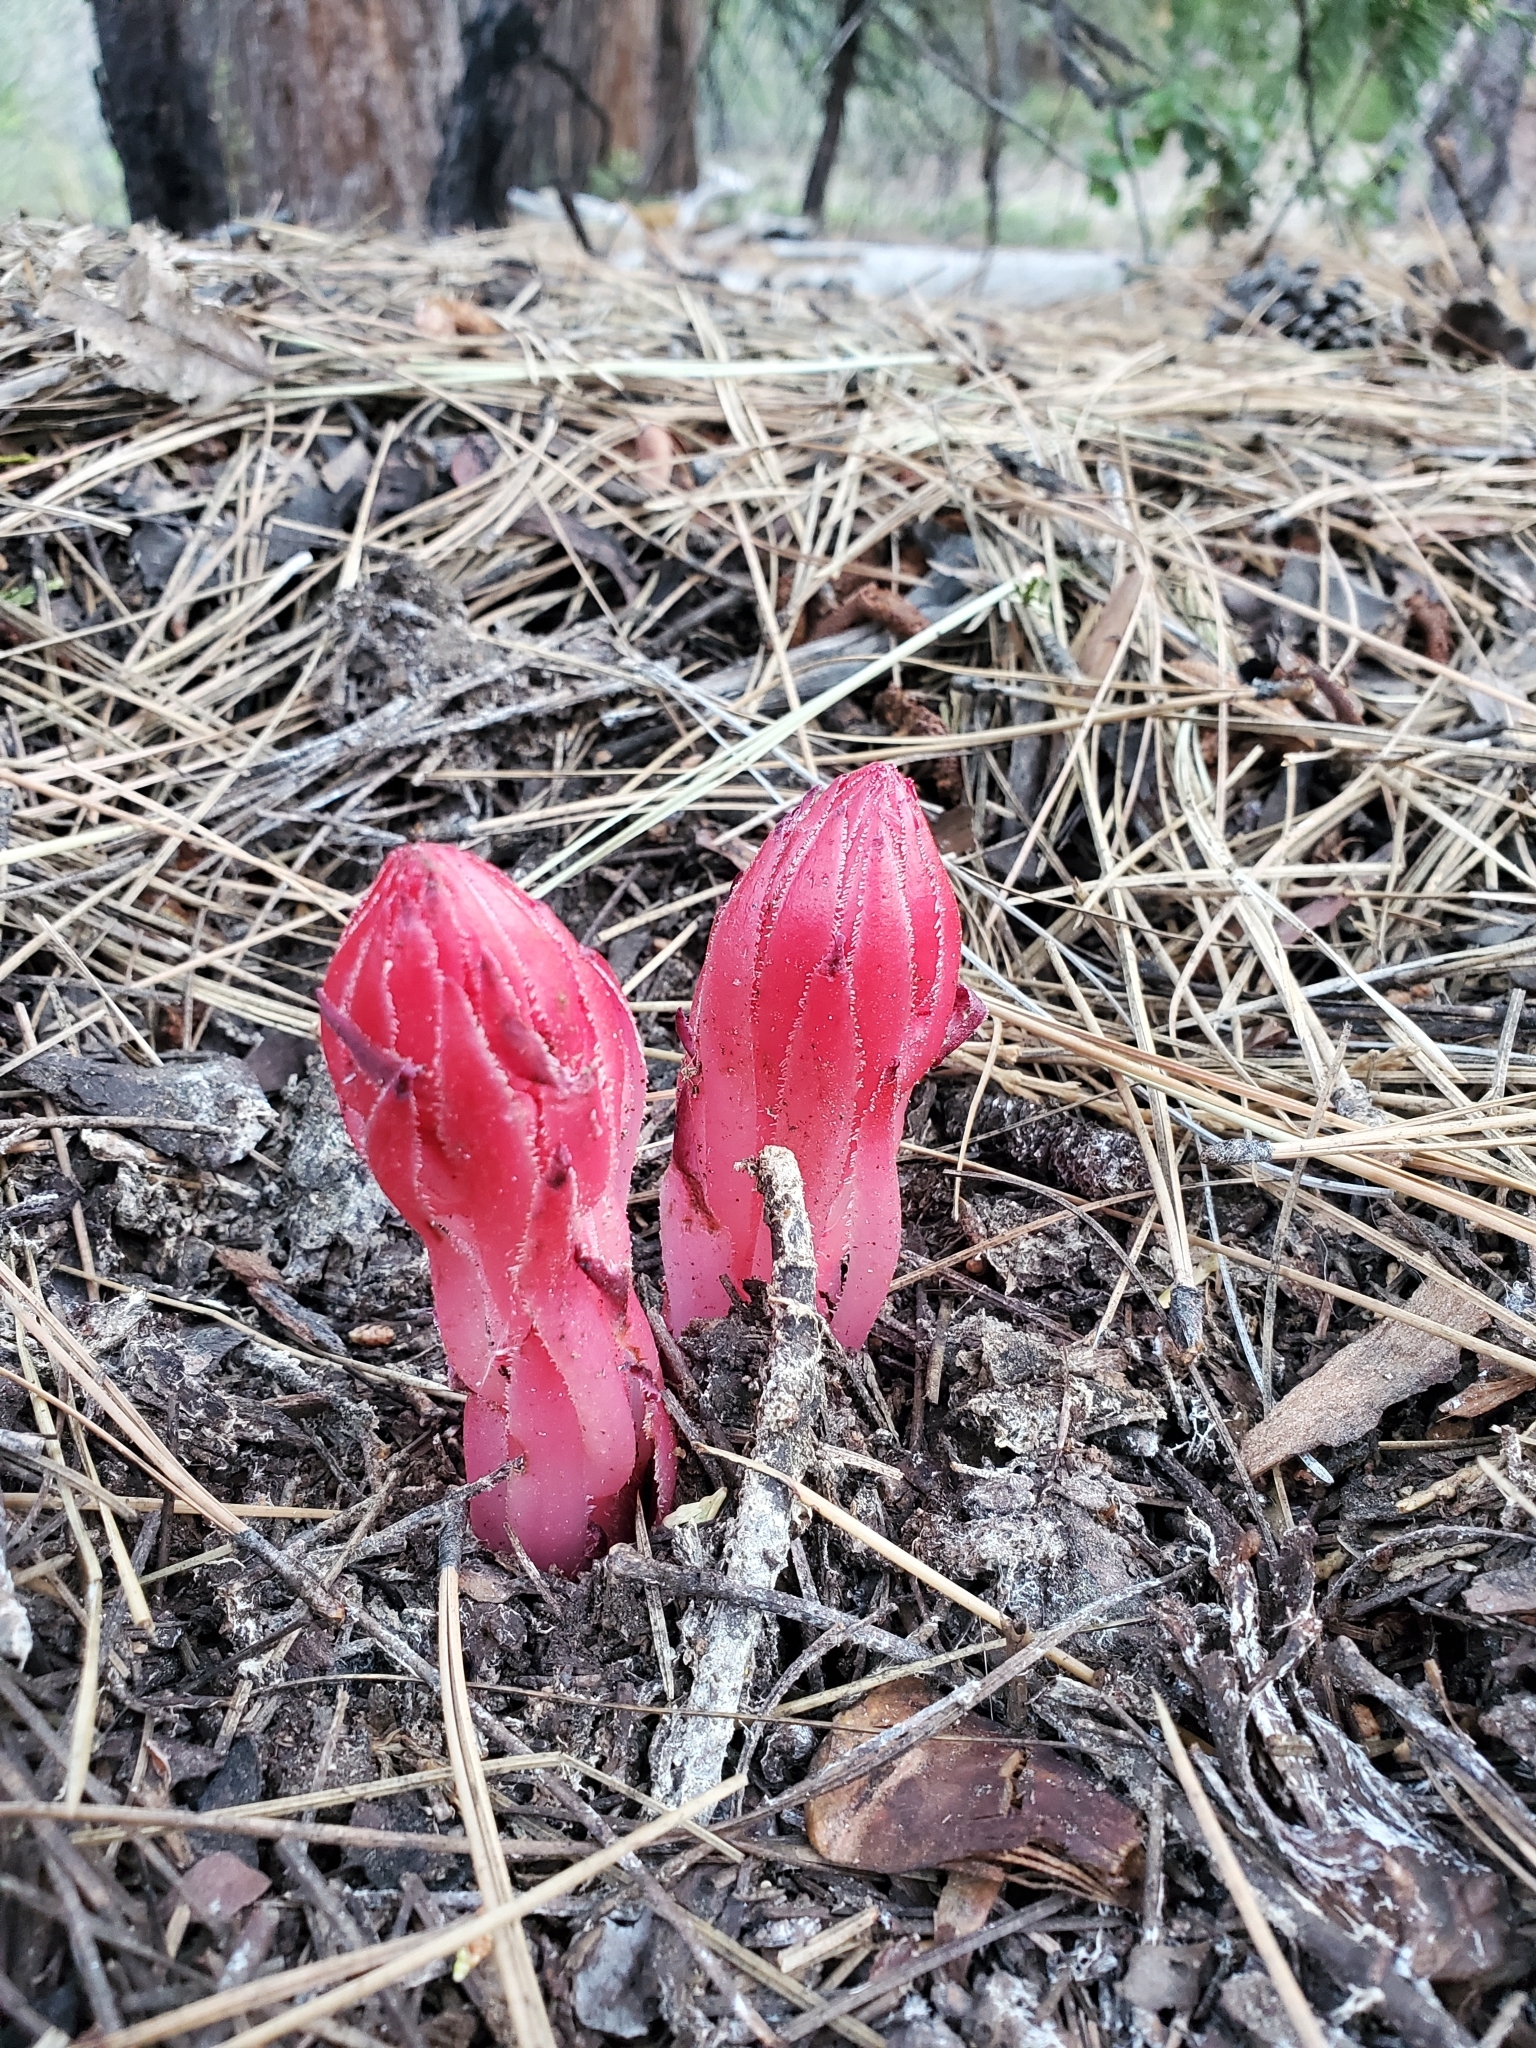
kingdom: Plantae
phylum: Tracheophyta
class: Magnoliopsida
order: Ericales
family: Ericaceae
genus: Sarcodes
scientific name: Sarcodes sanguinea
